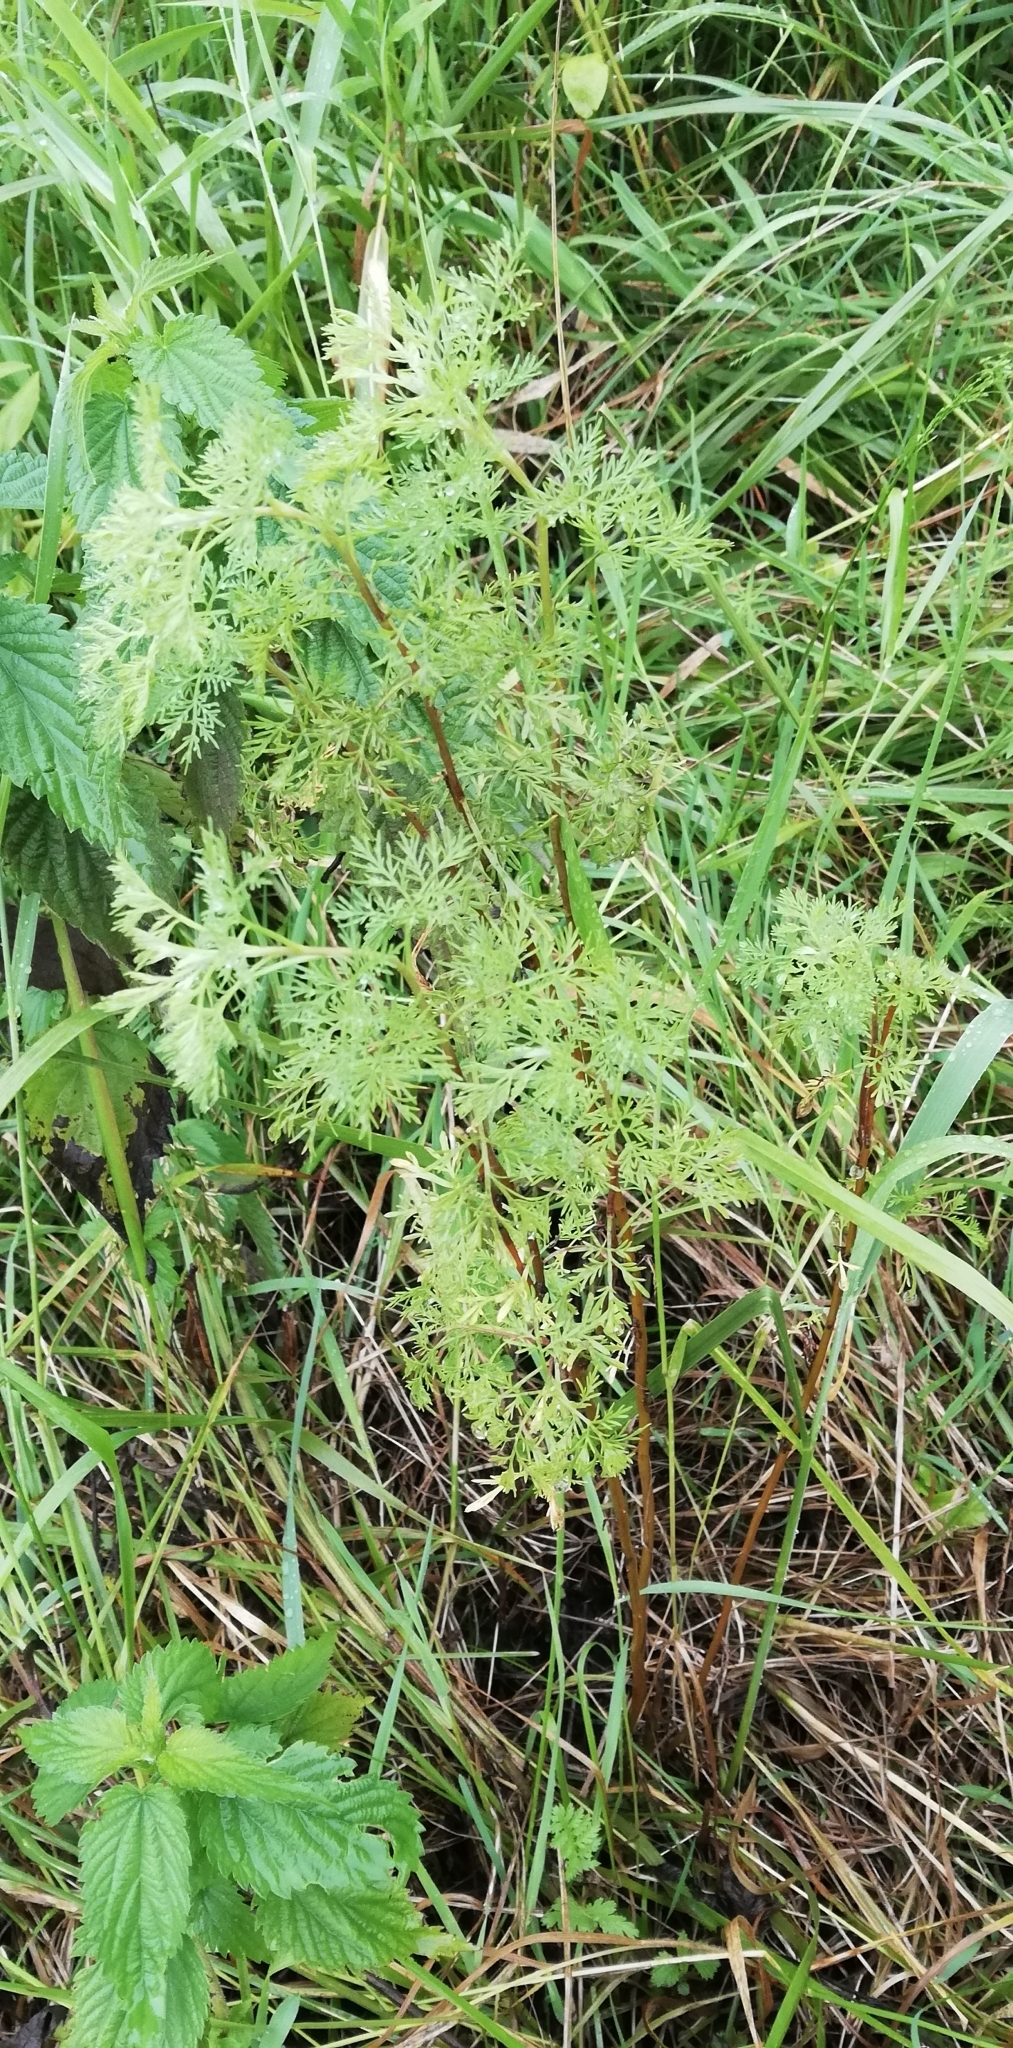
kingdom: Plantae
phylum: Tracheophyta
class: Magnoliopsida
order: Asterales
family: Asteraceae
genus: Artemisia
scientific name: Artemisia abrotanum
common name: Southernwood
